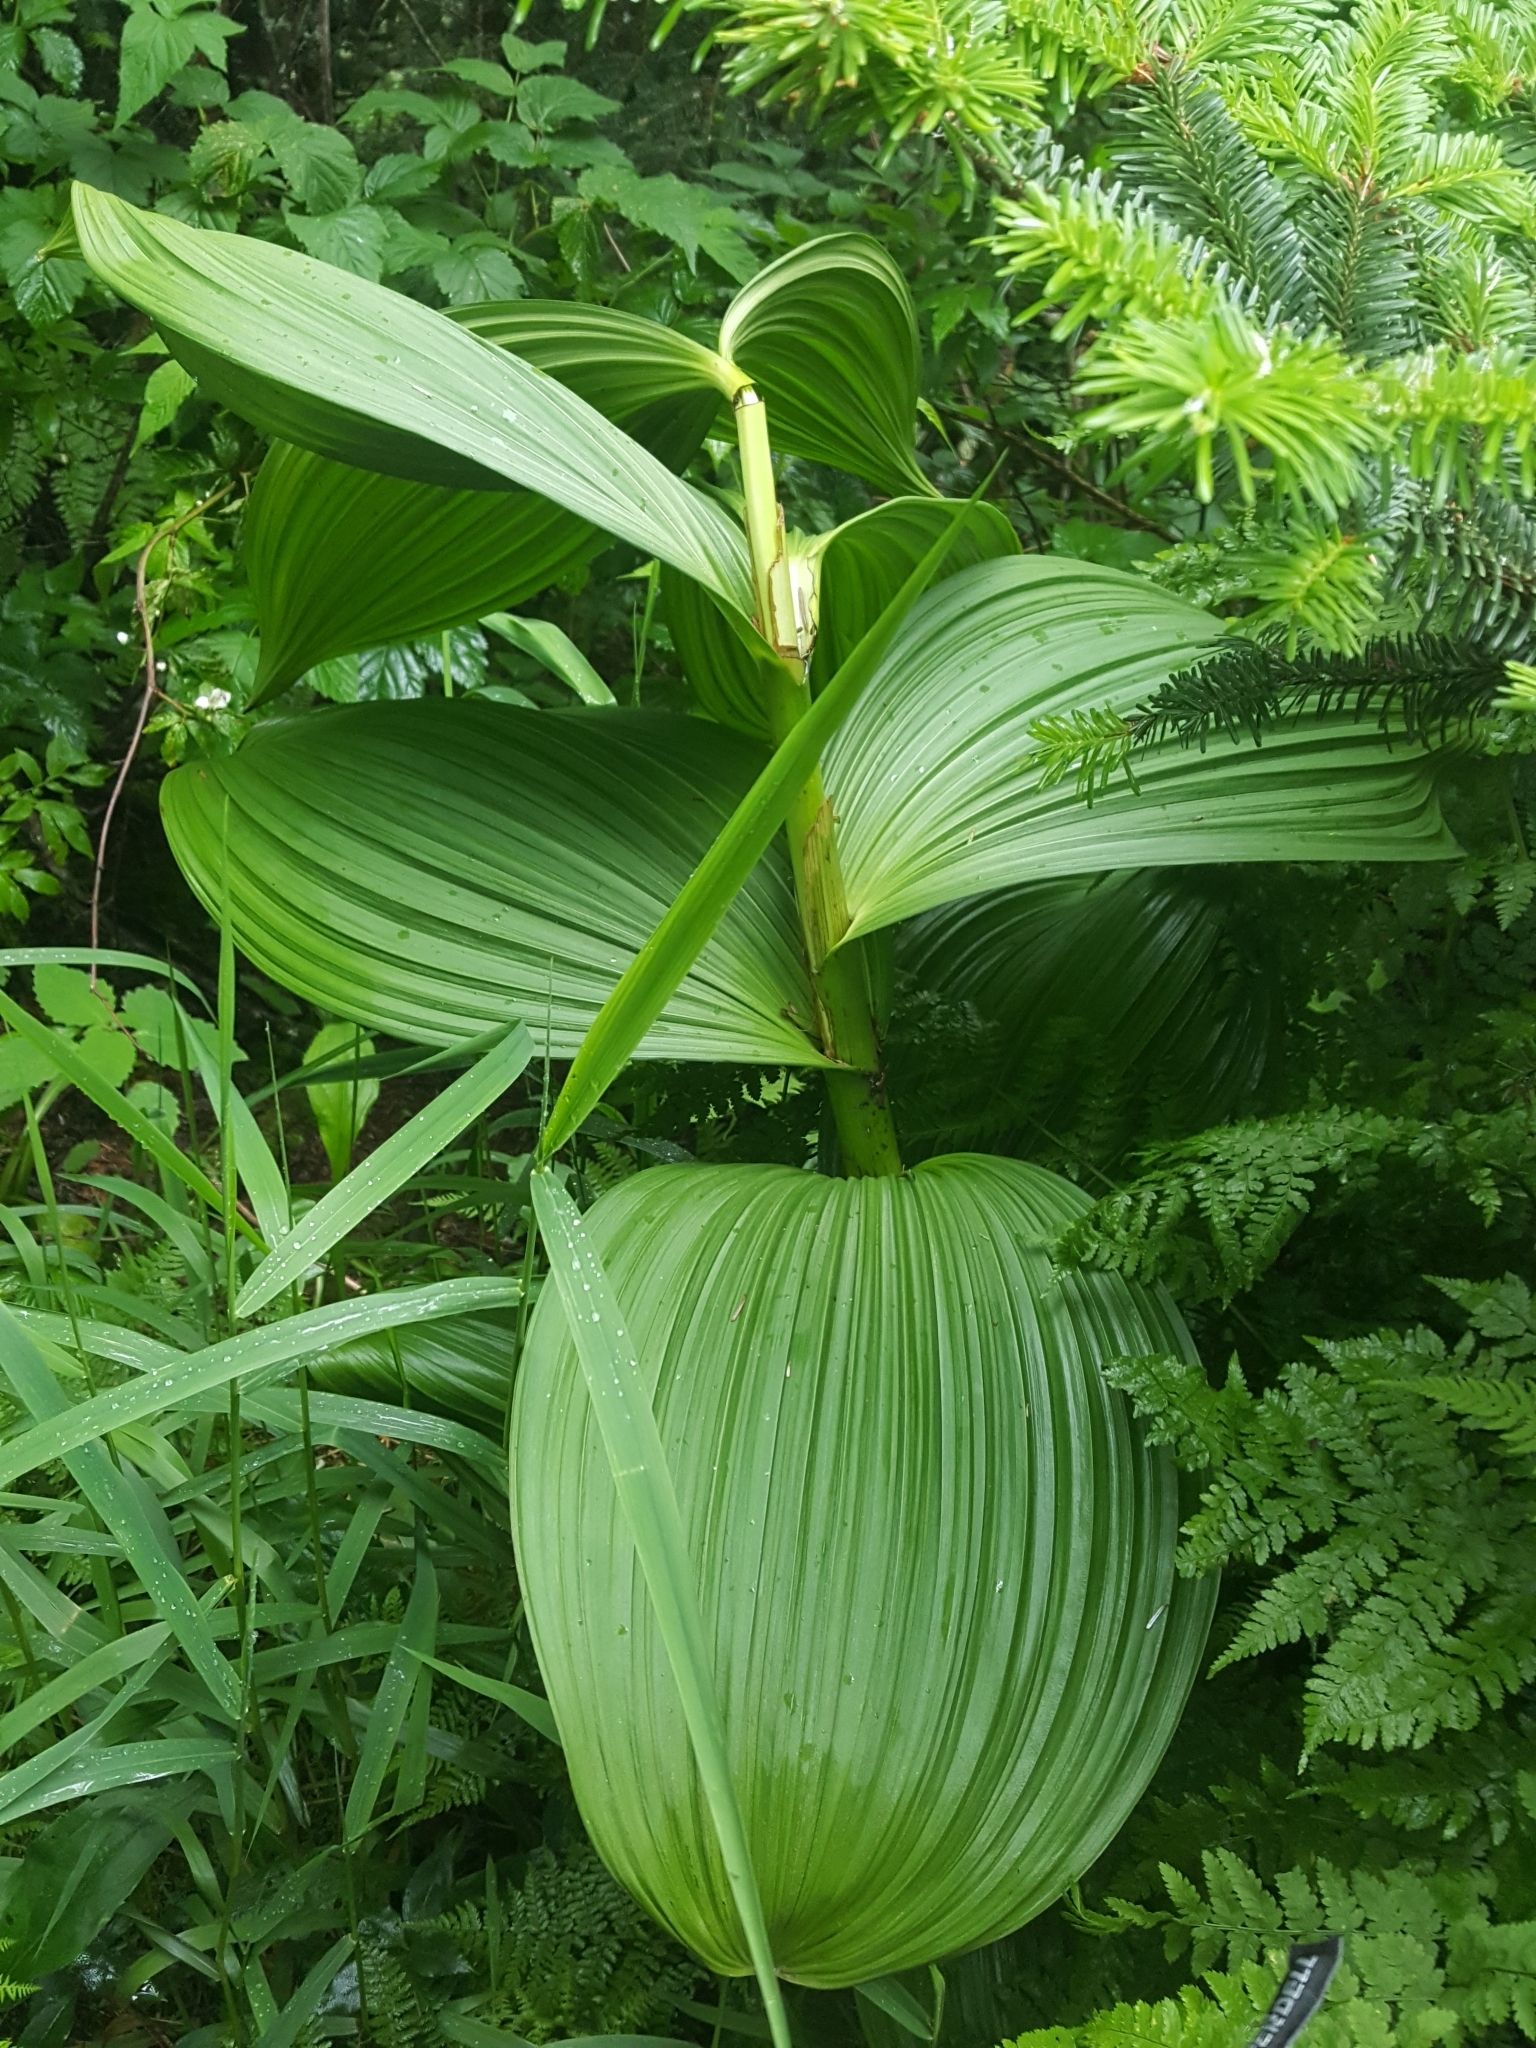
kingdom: Plantae
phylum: Tracheophyta
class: Liliopsida
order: Liliales
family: Melanthiaceae
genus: Veratrum
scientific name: Veratrum viride
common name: American false hellebore
